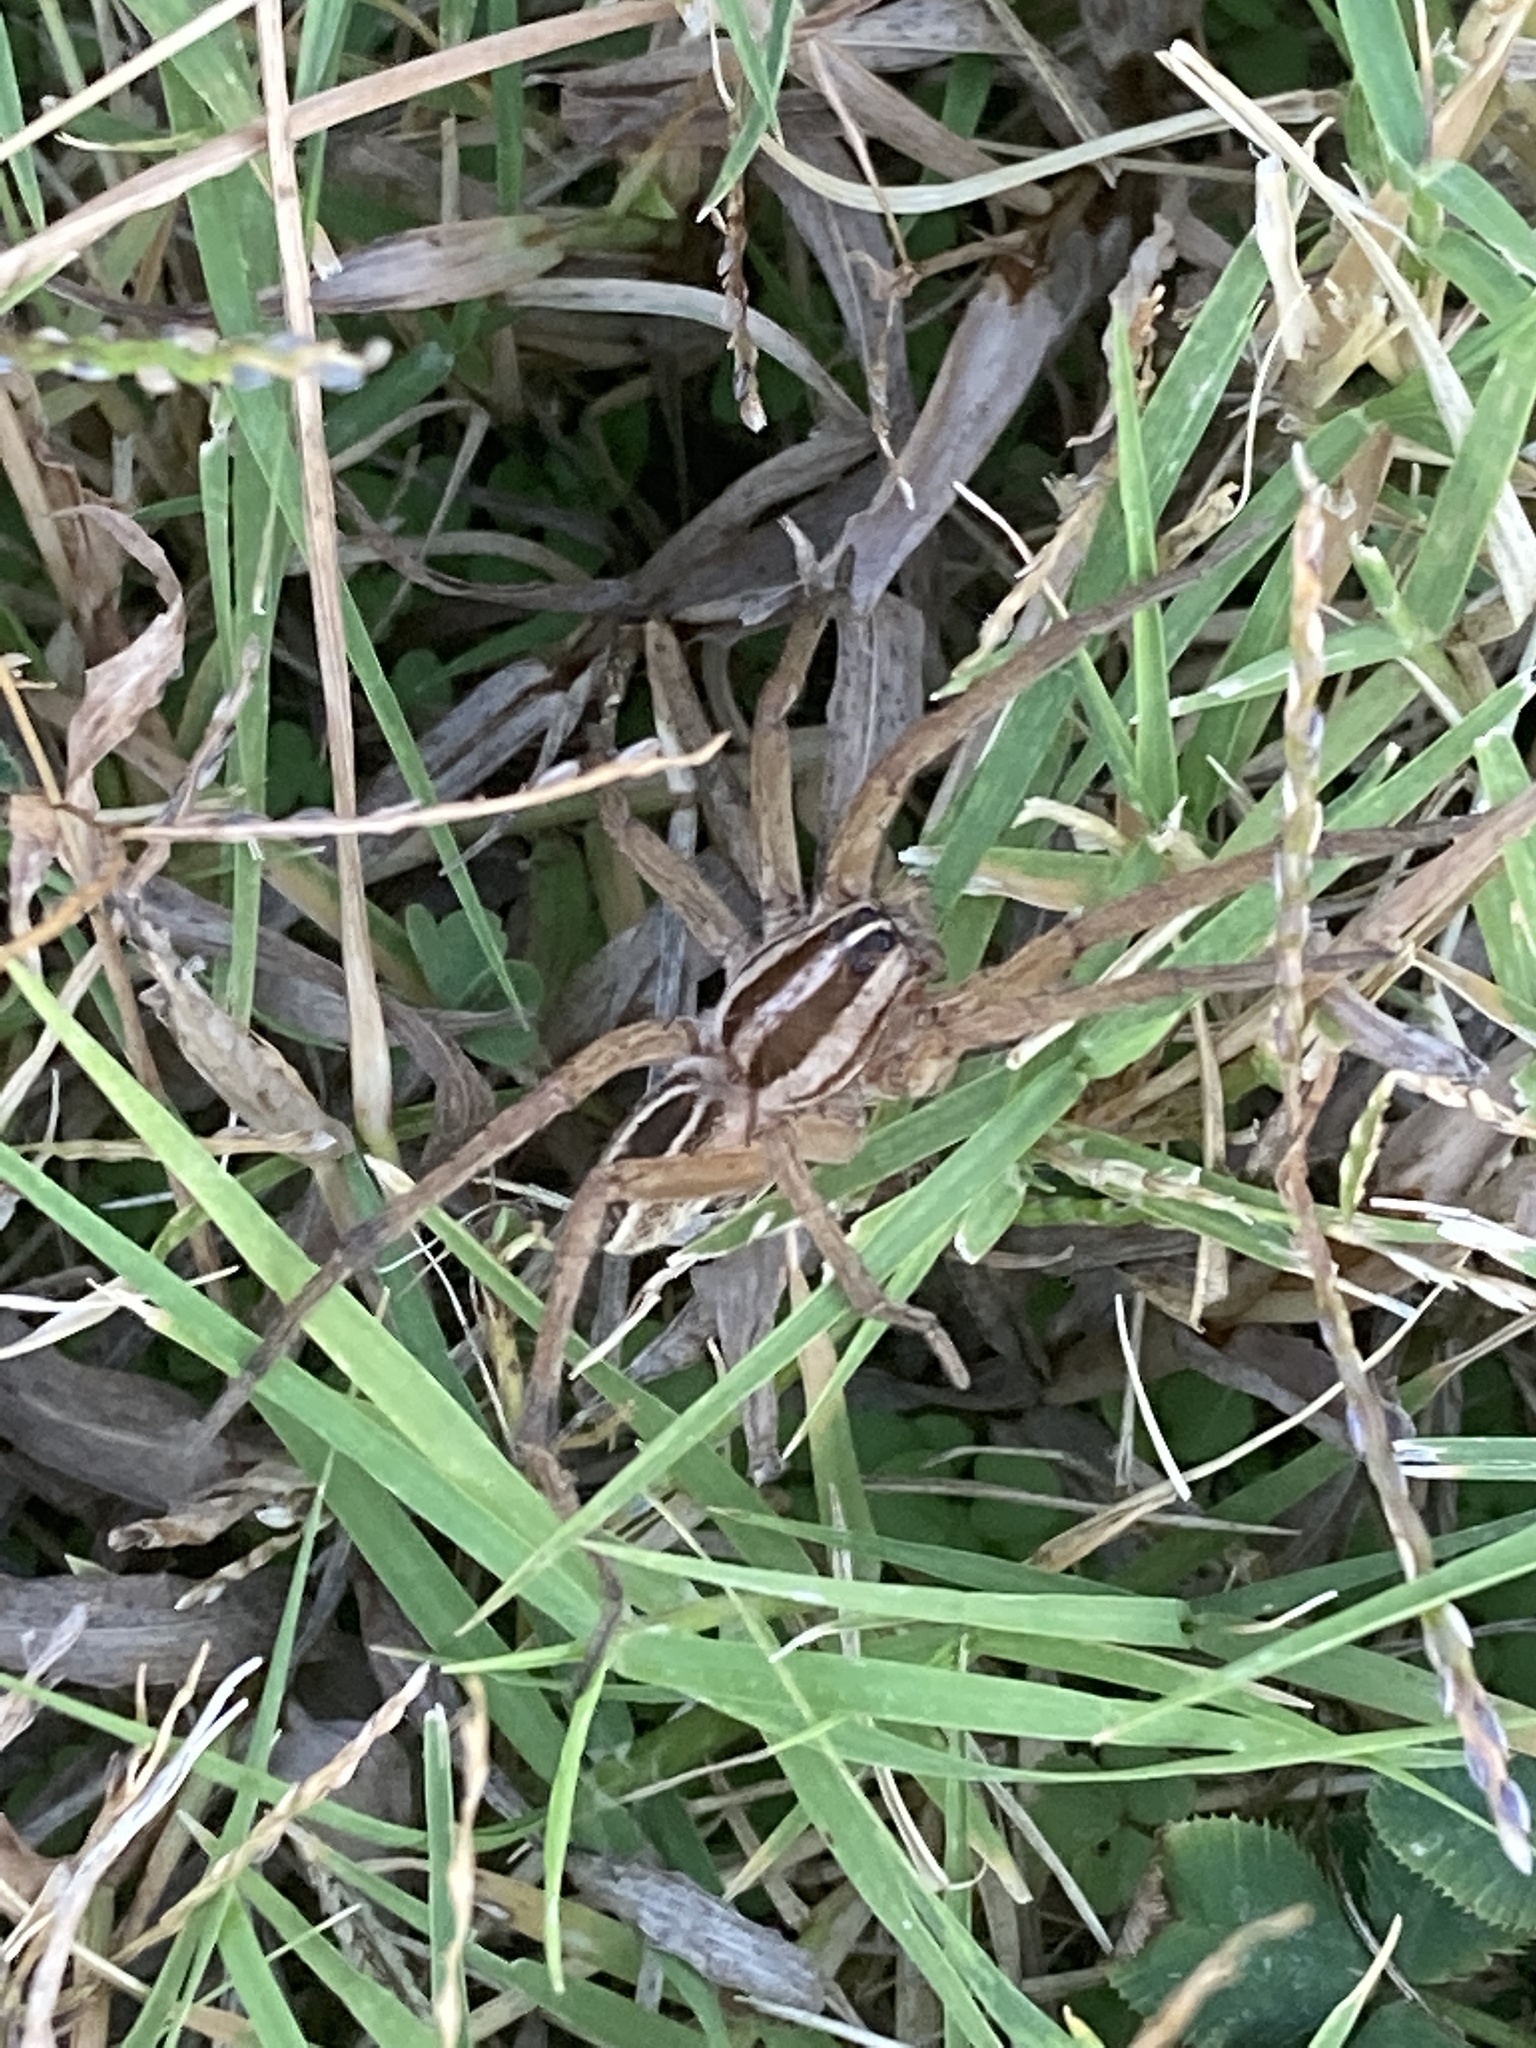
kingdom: Animalia
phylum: Arthropoda
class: Arachnida
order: Araneae
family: Lycosidae
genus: Rabidosa
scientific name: Rabidosa rabida
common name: Rabid wolf spider
